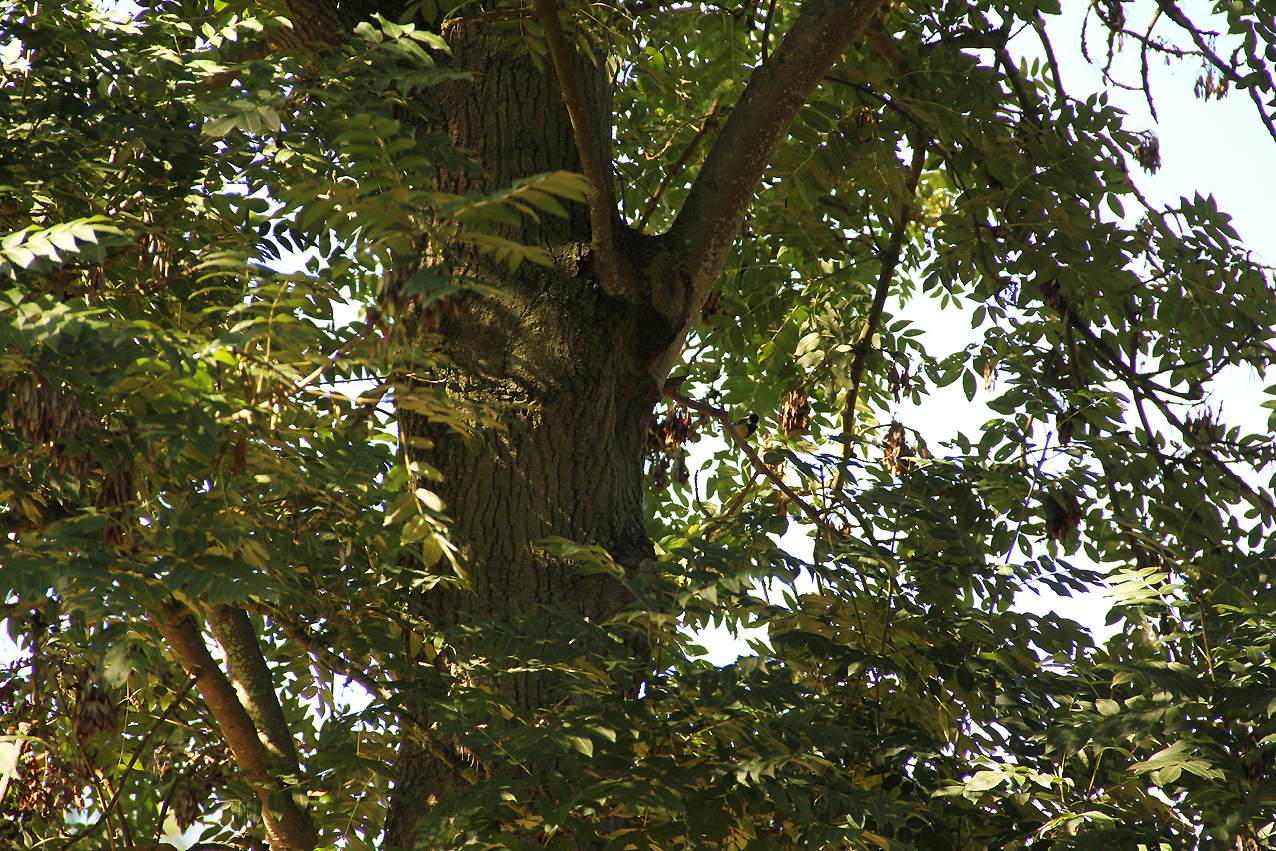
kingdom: Animalia
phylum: Chordata
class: Aves
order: Passeriformes
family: Paridae
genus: Parus
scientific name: Parus major
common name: Great tit
